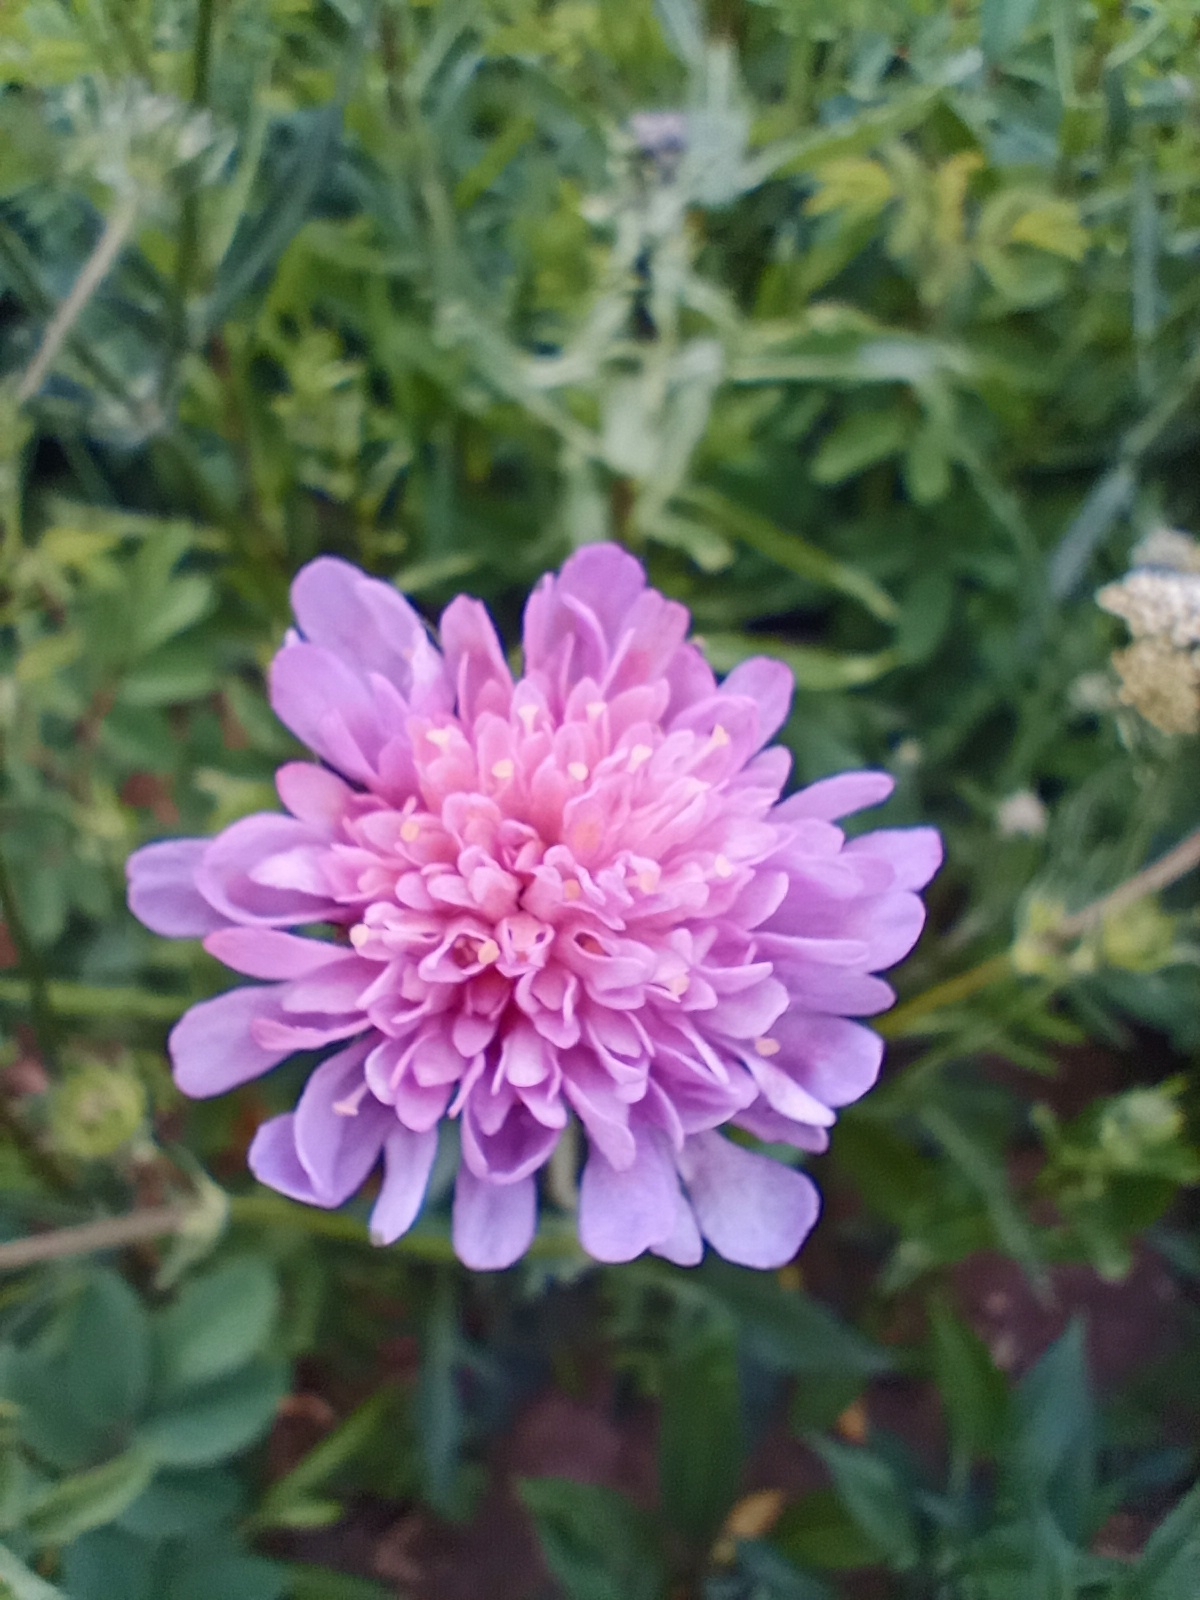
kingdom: Plantae
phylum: Tracheophyta
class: Magnoliopsida
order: Dipsacales
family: Caprifoliaceae
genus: Knautia
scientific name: Knautia arvensis
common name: Field scabiosa
